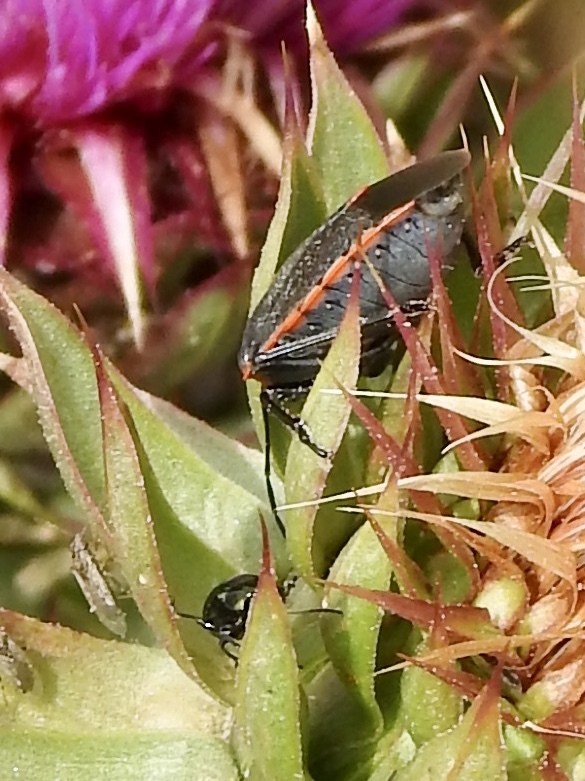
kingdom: Animalia
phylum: Arthropoda
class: Insecta
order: Hemiptera
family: Pentatomidae
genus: Chlorochroa
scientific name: Chlorochroa ligata
